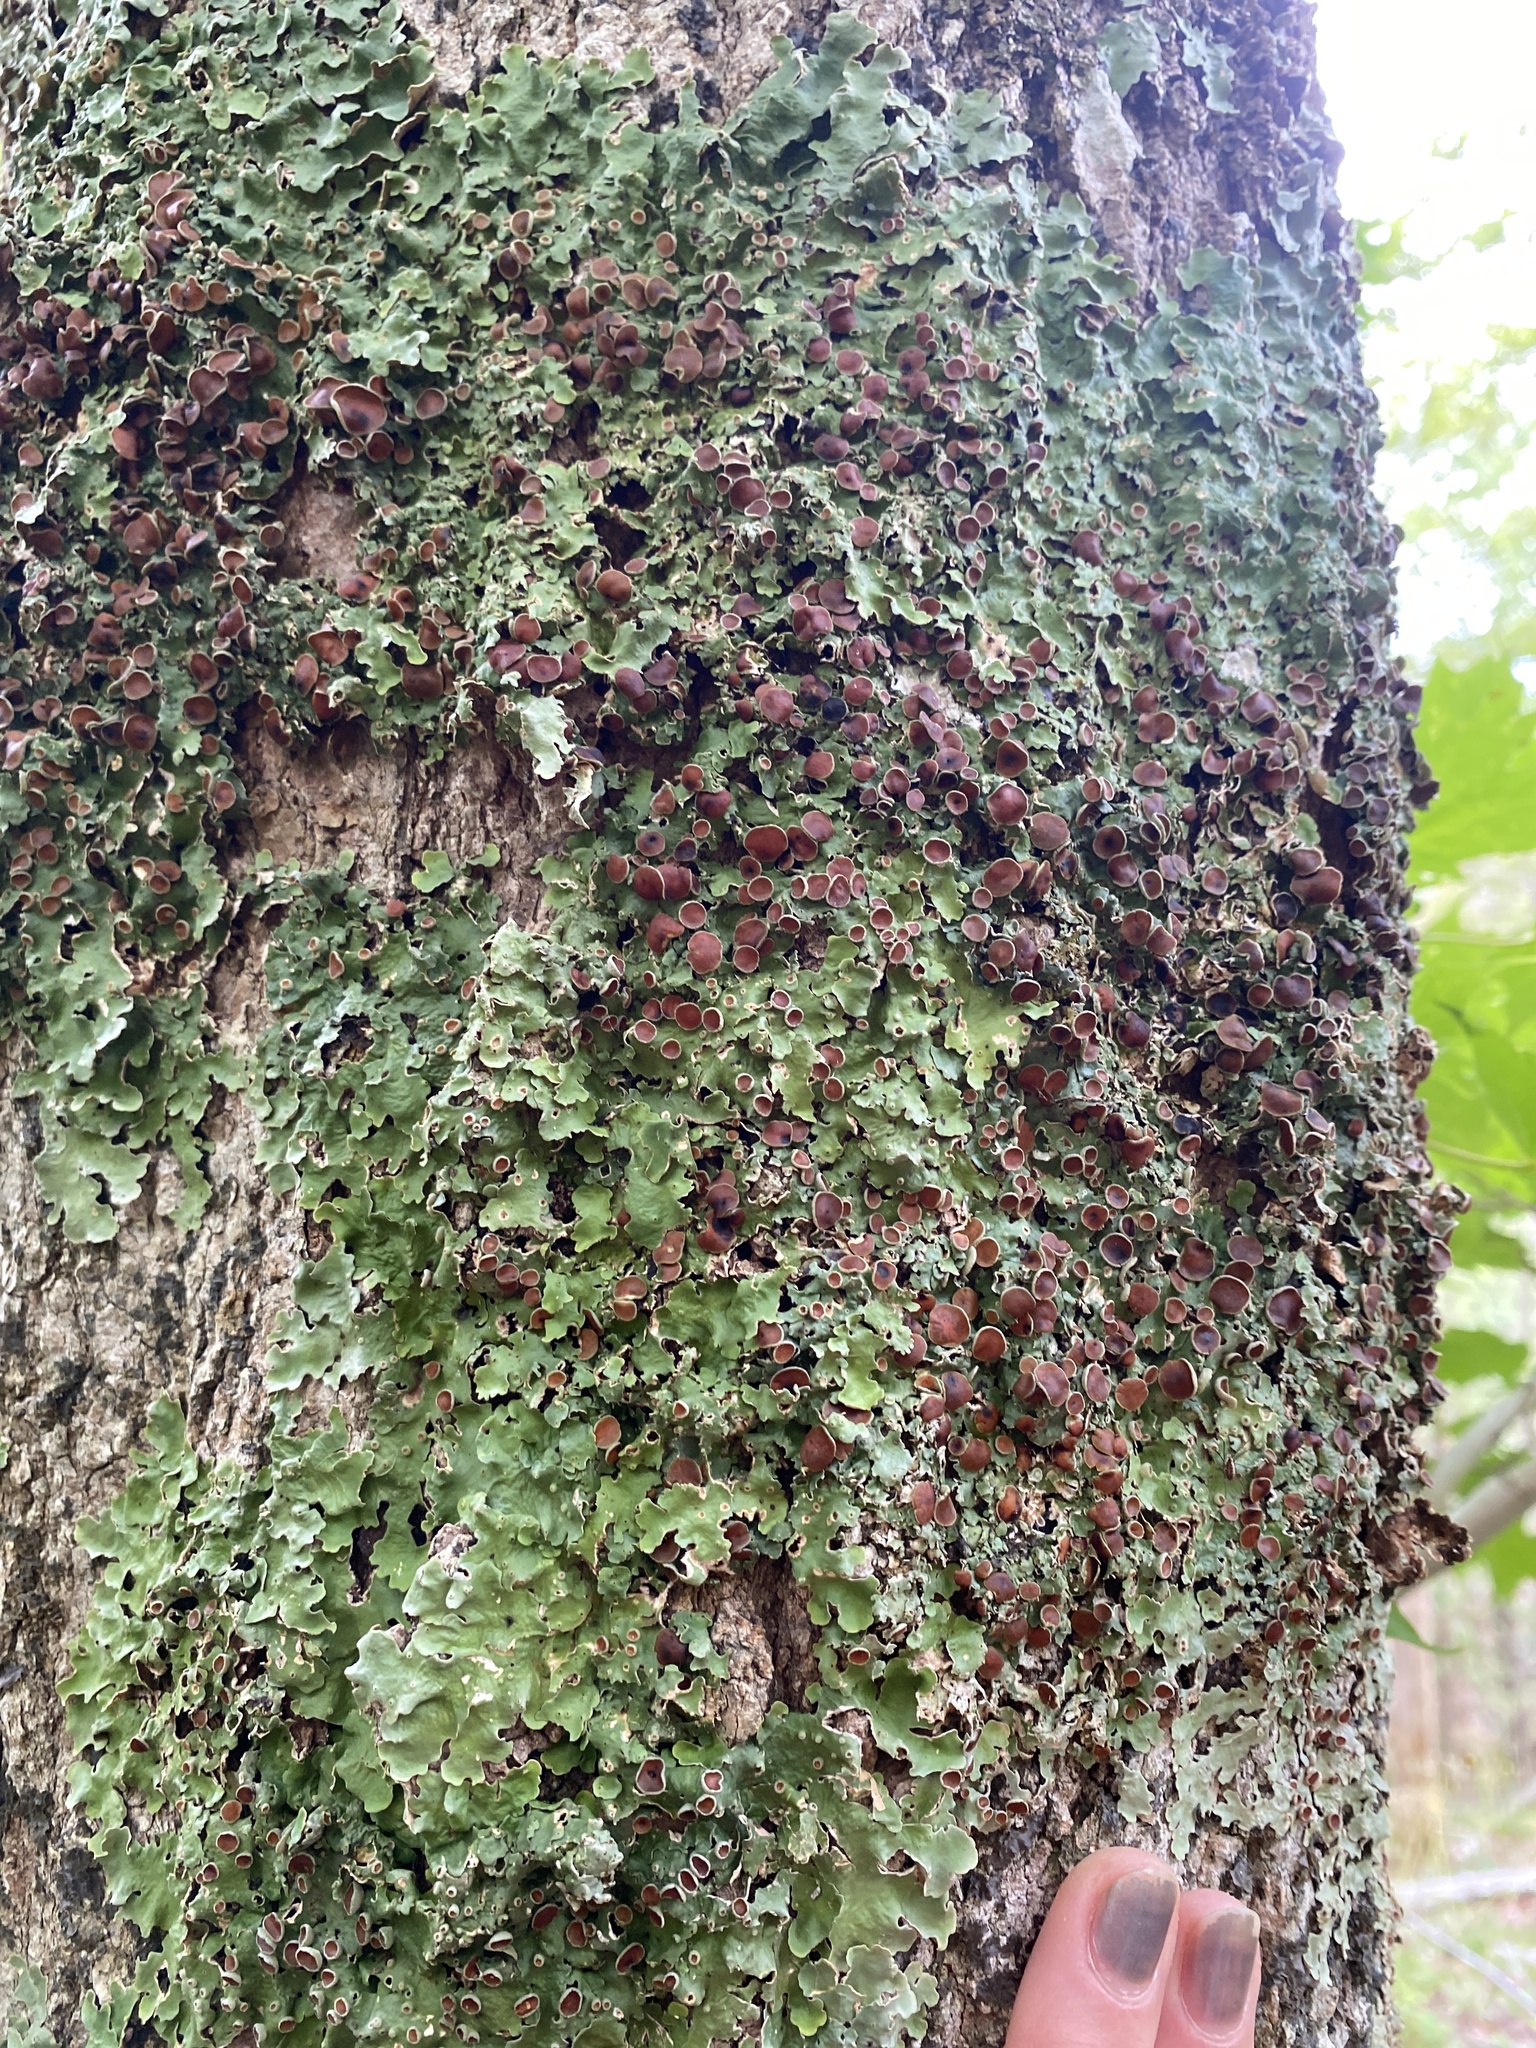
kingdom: Fungi
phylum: Ascomycota
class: Lecanoromycetes
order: Peltigerales
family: Lobariaceae
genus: Ricasolia
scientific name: Ricasolia quercizans
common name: Smooth lungwort
